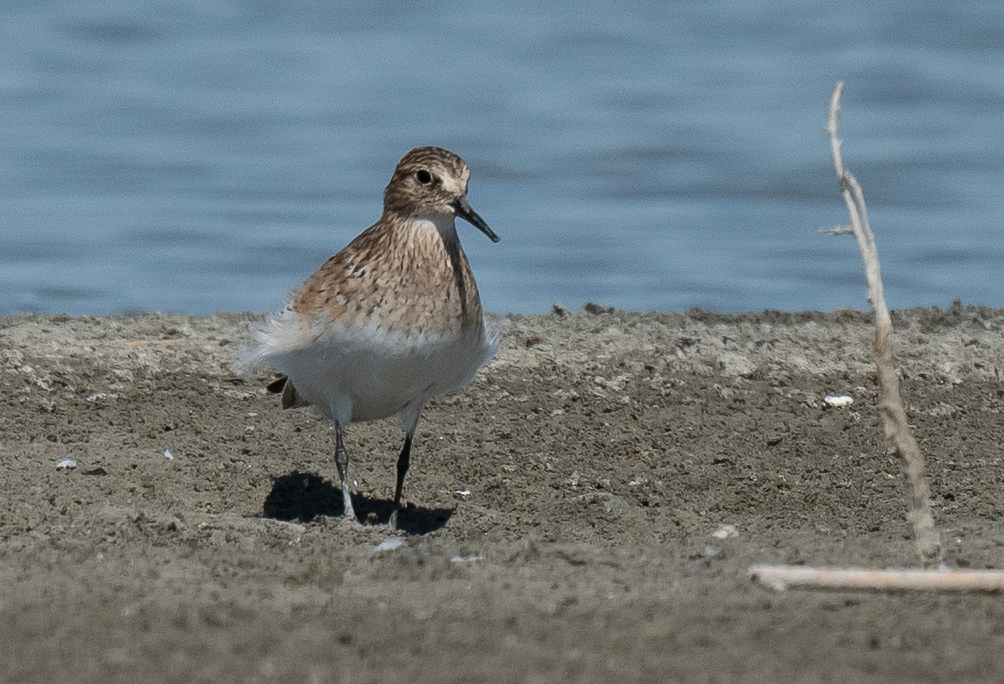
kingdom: Animalia
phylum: Chordata
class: Aves
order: Charadriiformes
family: Scolopacidae
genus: Calidris
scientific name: Calidris bairdii
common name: Baird's sandpiper
